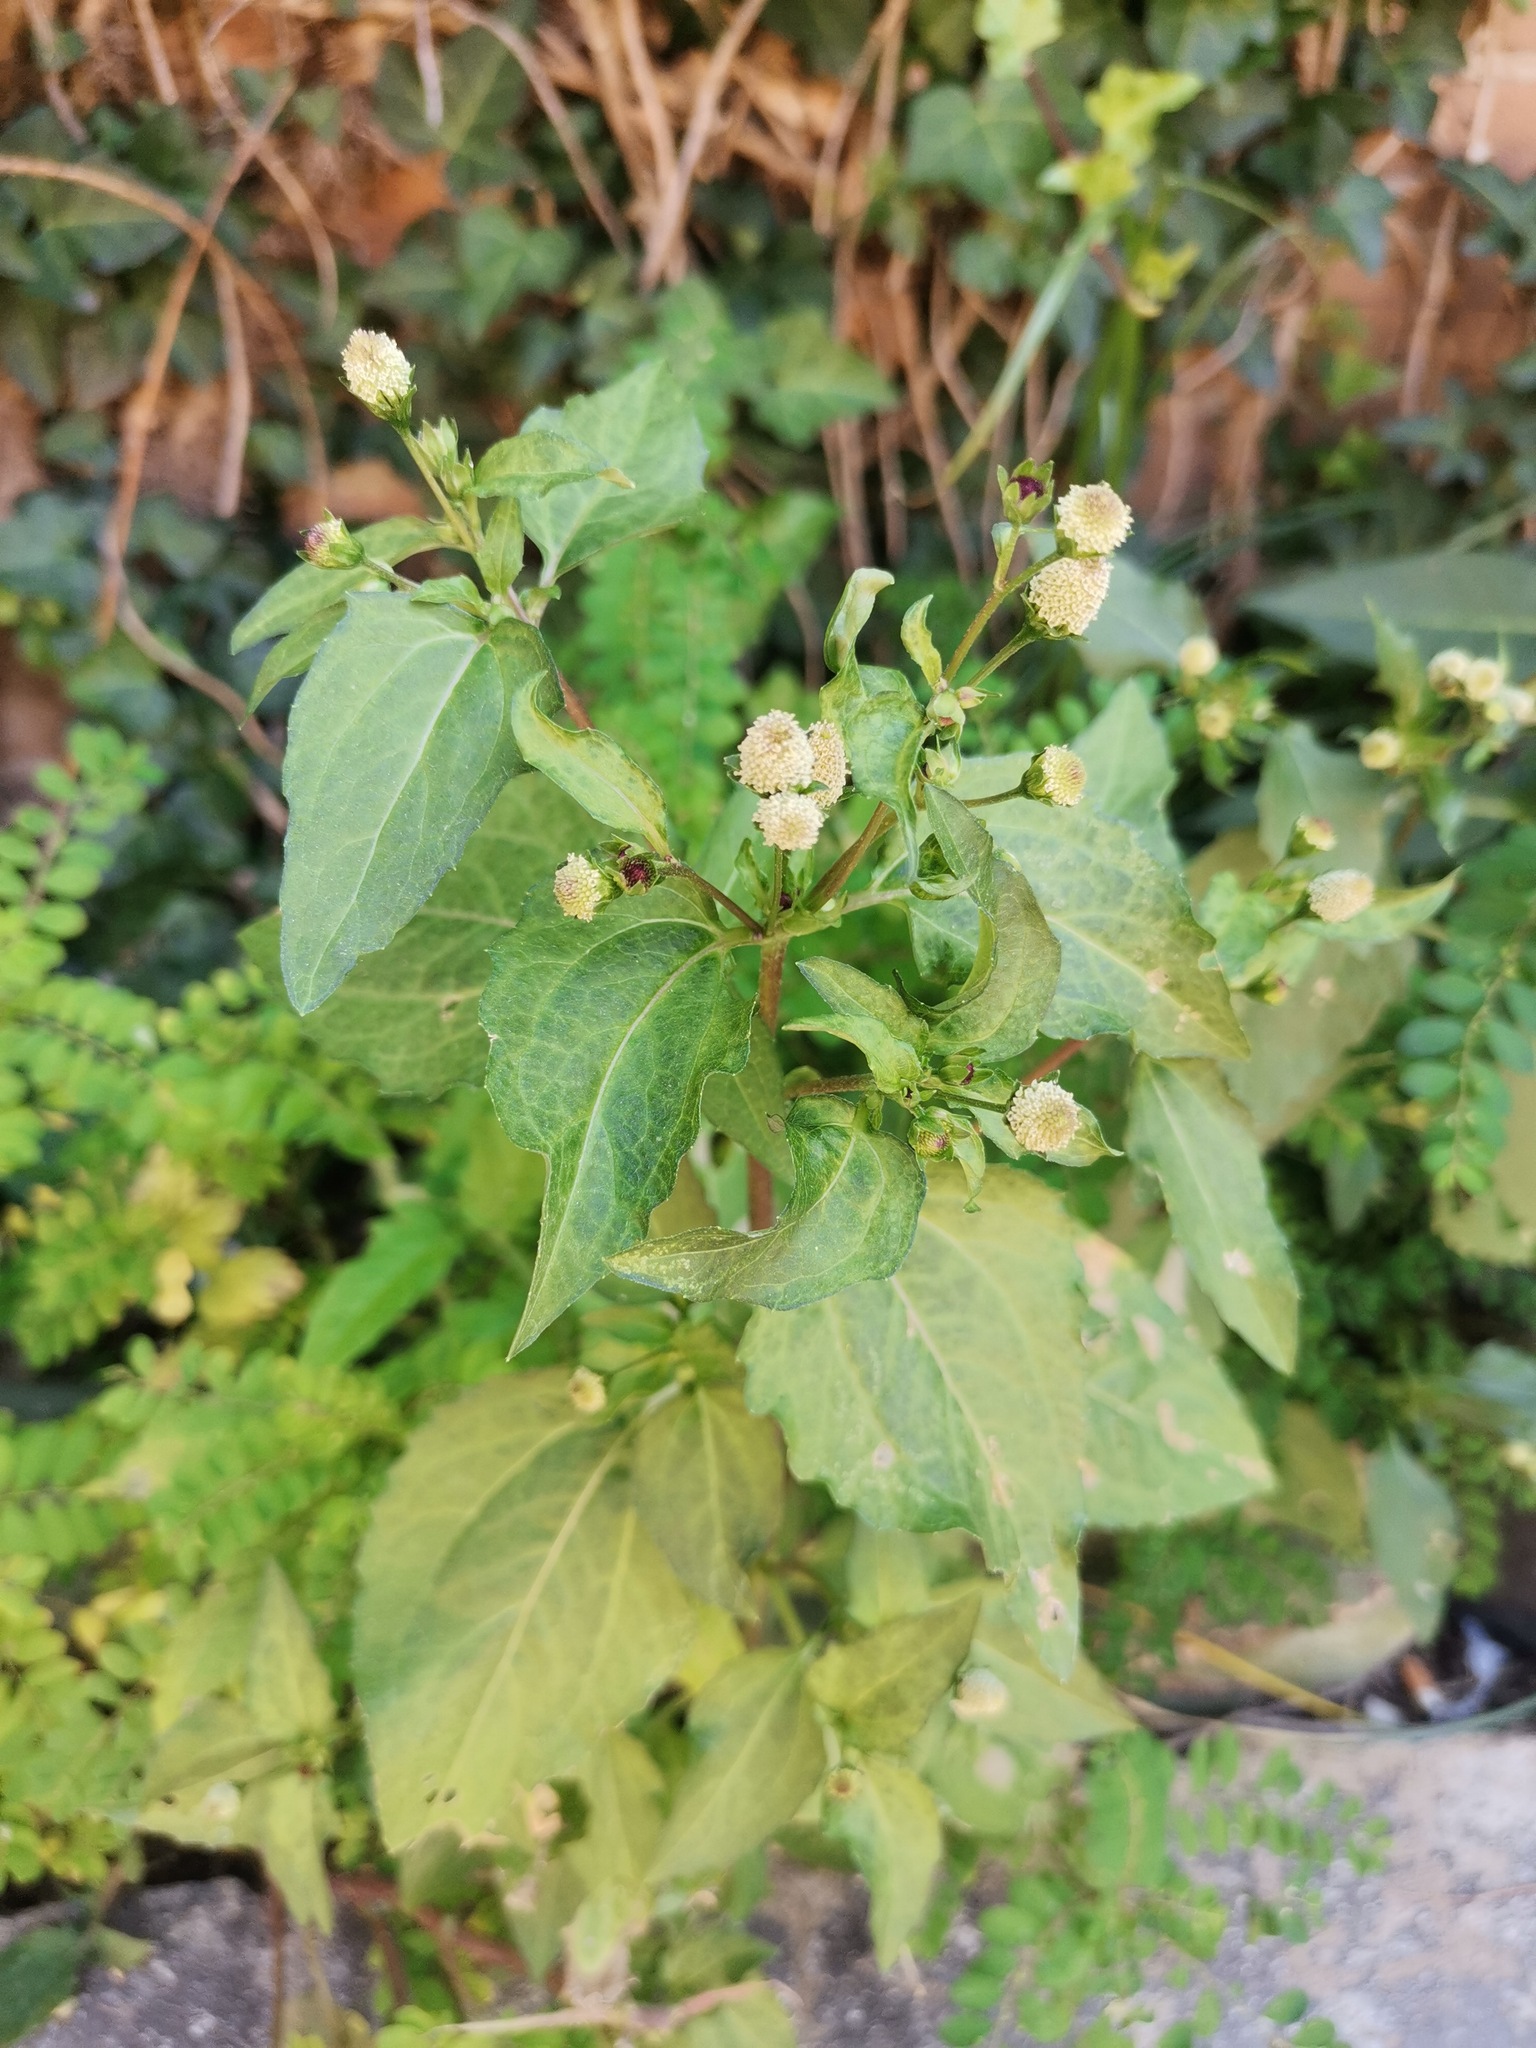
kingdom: Plantae
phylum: Tracheophyta
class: Magnoliopsida
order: Asterales
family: Asteraceae
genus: Acmella
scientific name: Acmella radicans
